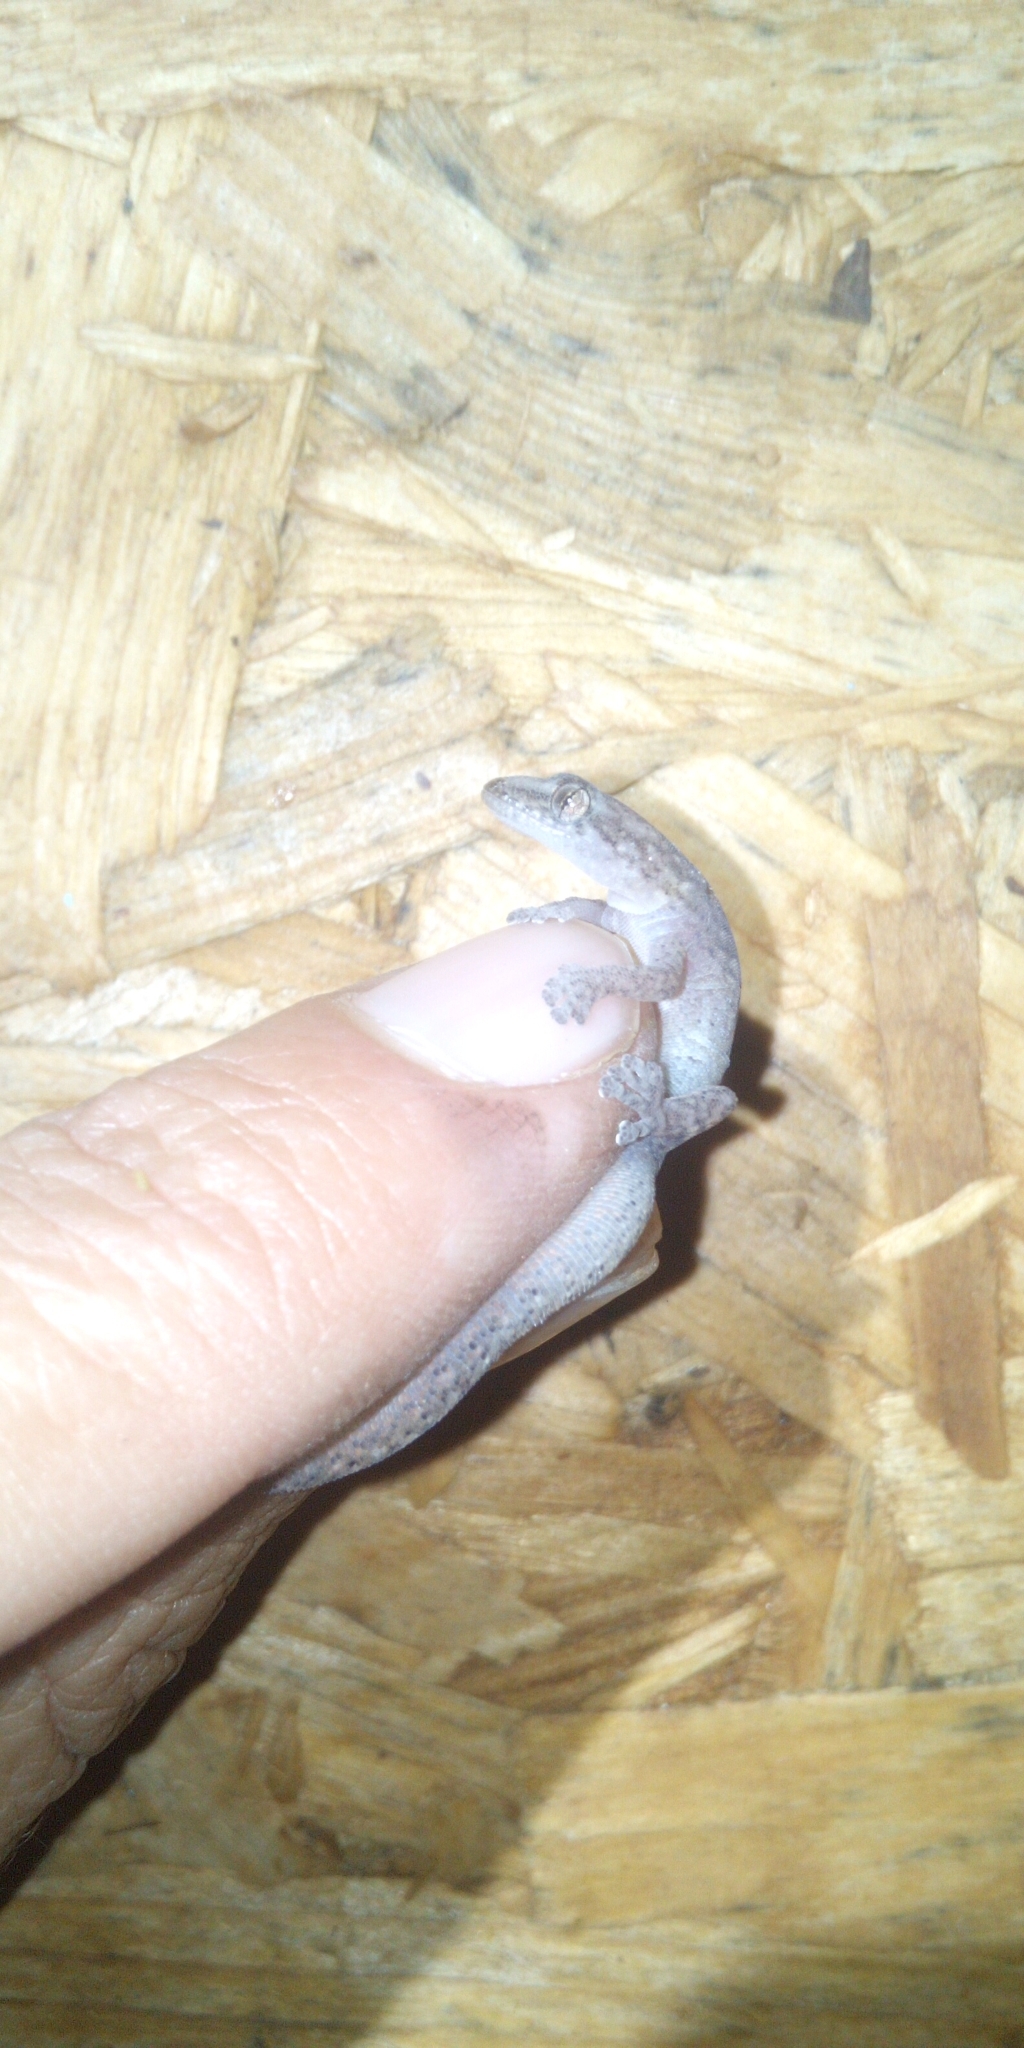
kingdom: Animalia
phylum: Chordata
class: Squamata
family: Gekkonidae
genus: Afrogecko
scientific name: Afrogecko porphyreus
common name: Marbled leaf-toed gecko
